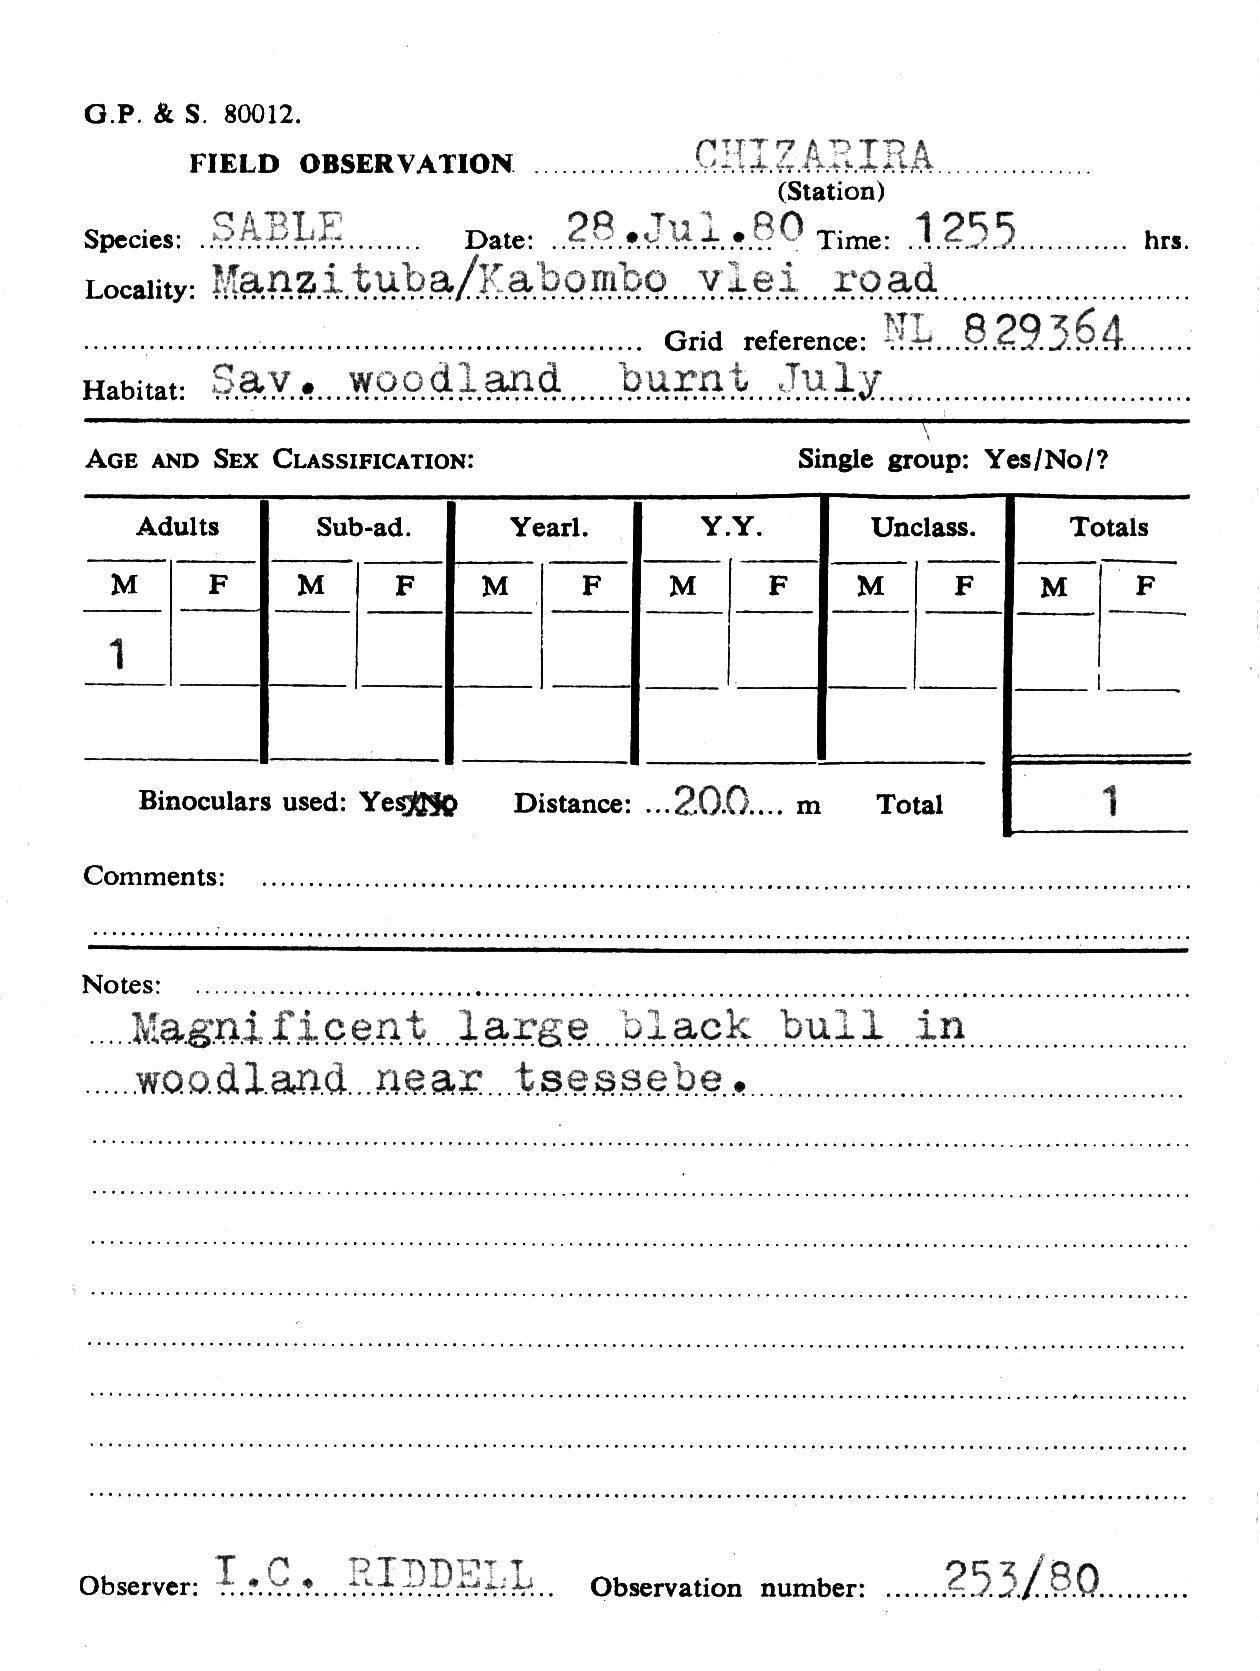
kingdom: Animalia
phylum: Chordata
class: Mammalia
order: Artiodactyla
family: Bovidae
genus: Hippotragus
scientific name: Hippotragus niger
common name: Sable antelope
